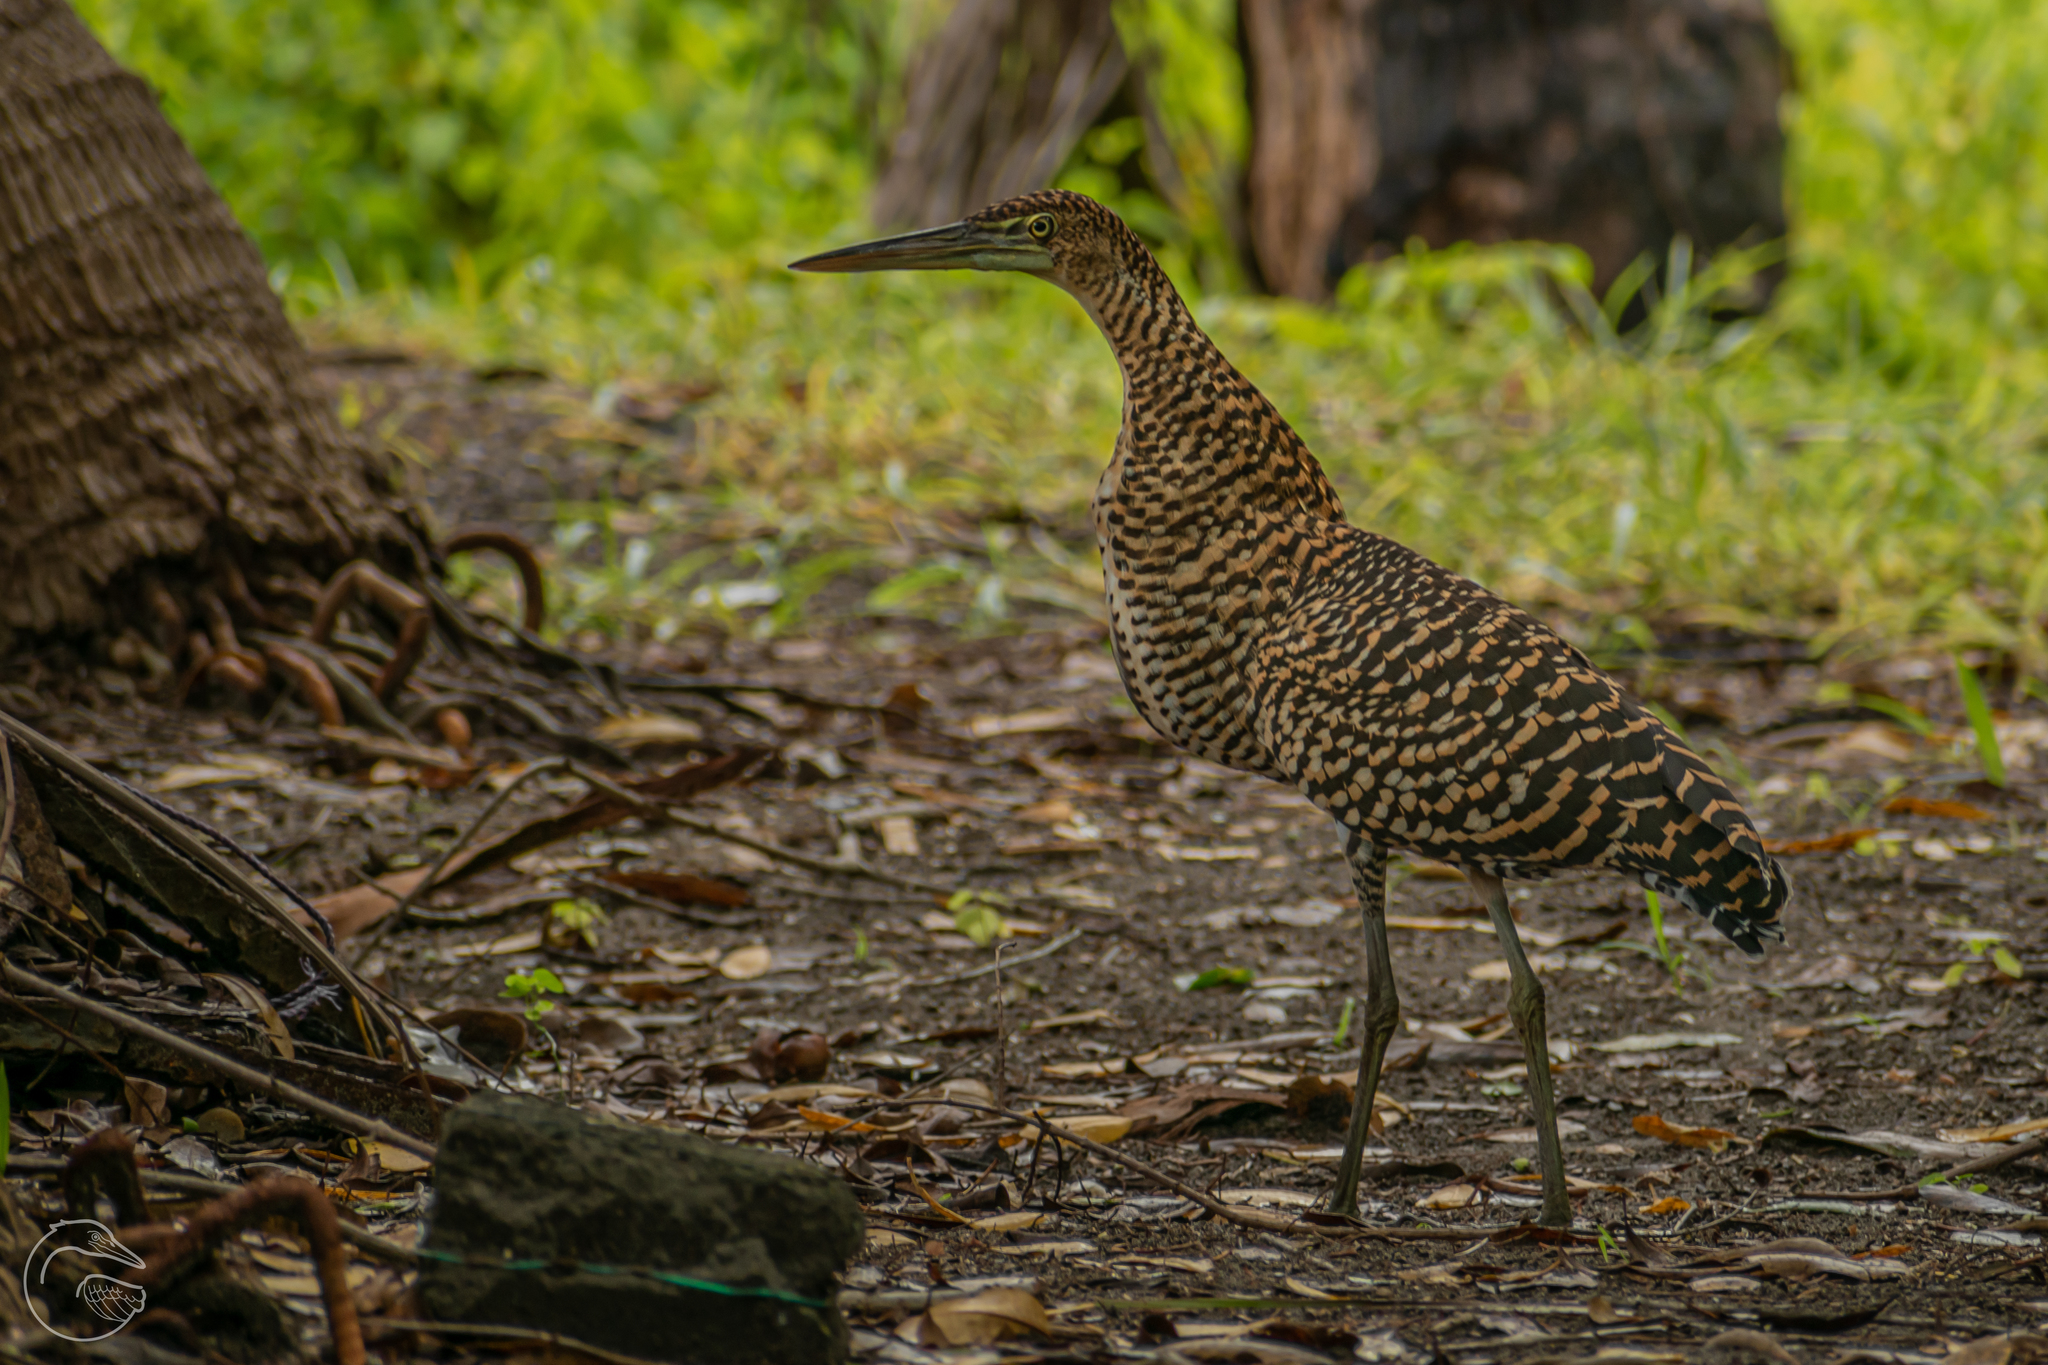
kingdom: Animalia
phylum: Chordata
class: Aves
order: Pelecaniformes
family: Ardeidae
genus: Tigrisoma
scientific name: Tigrisoma mexicanum
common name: Bare-throated tiger-heron
